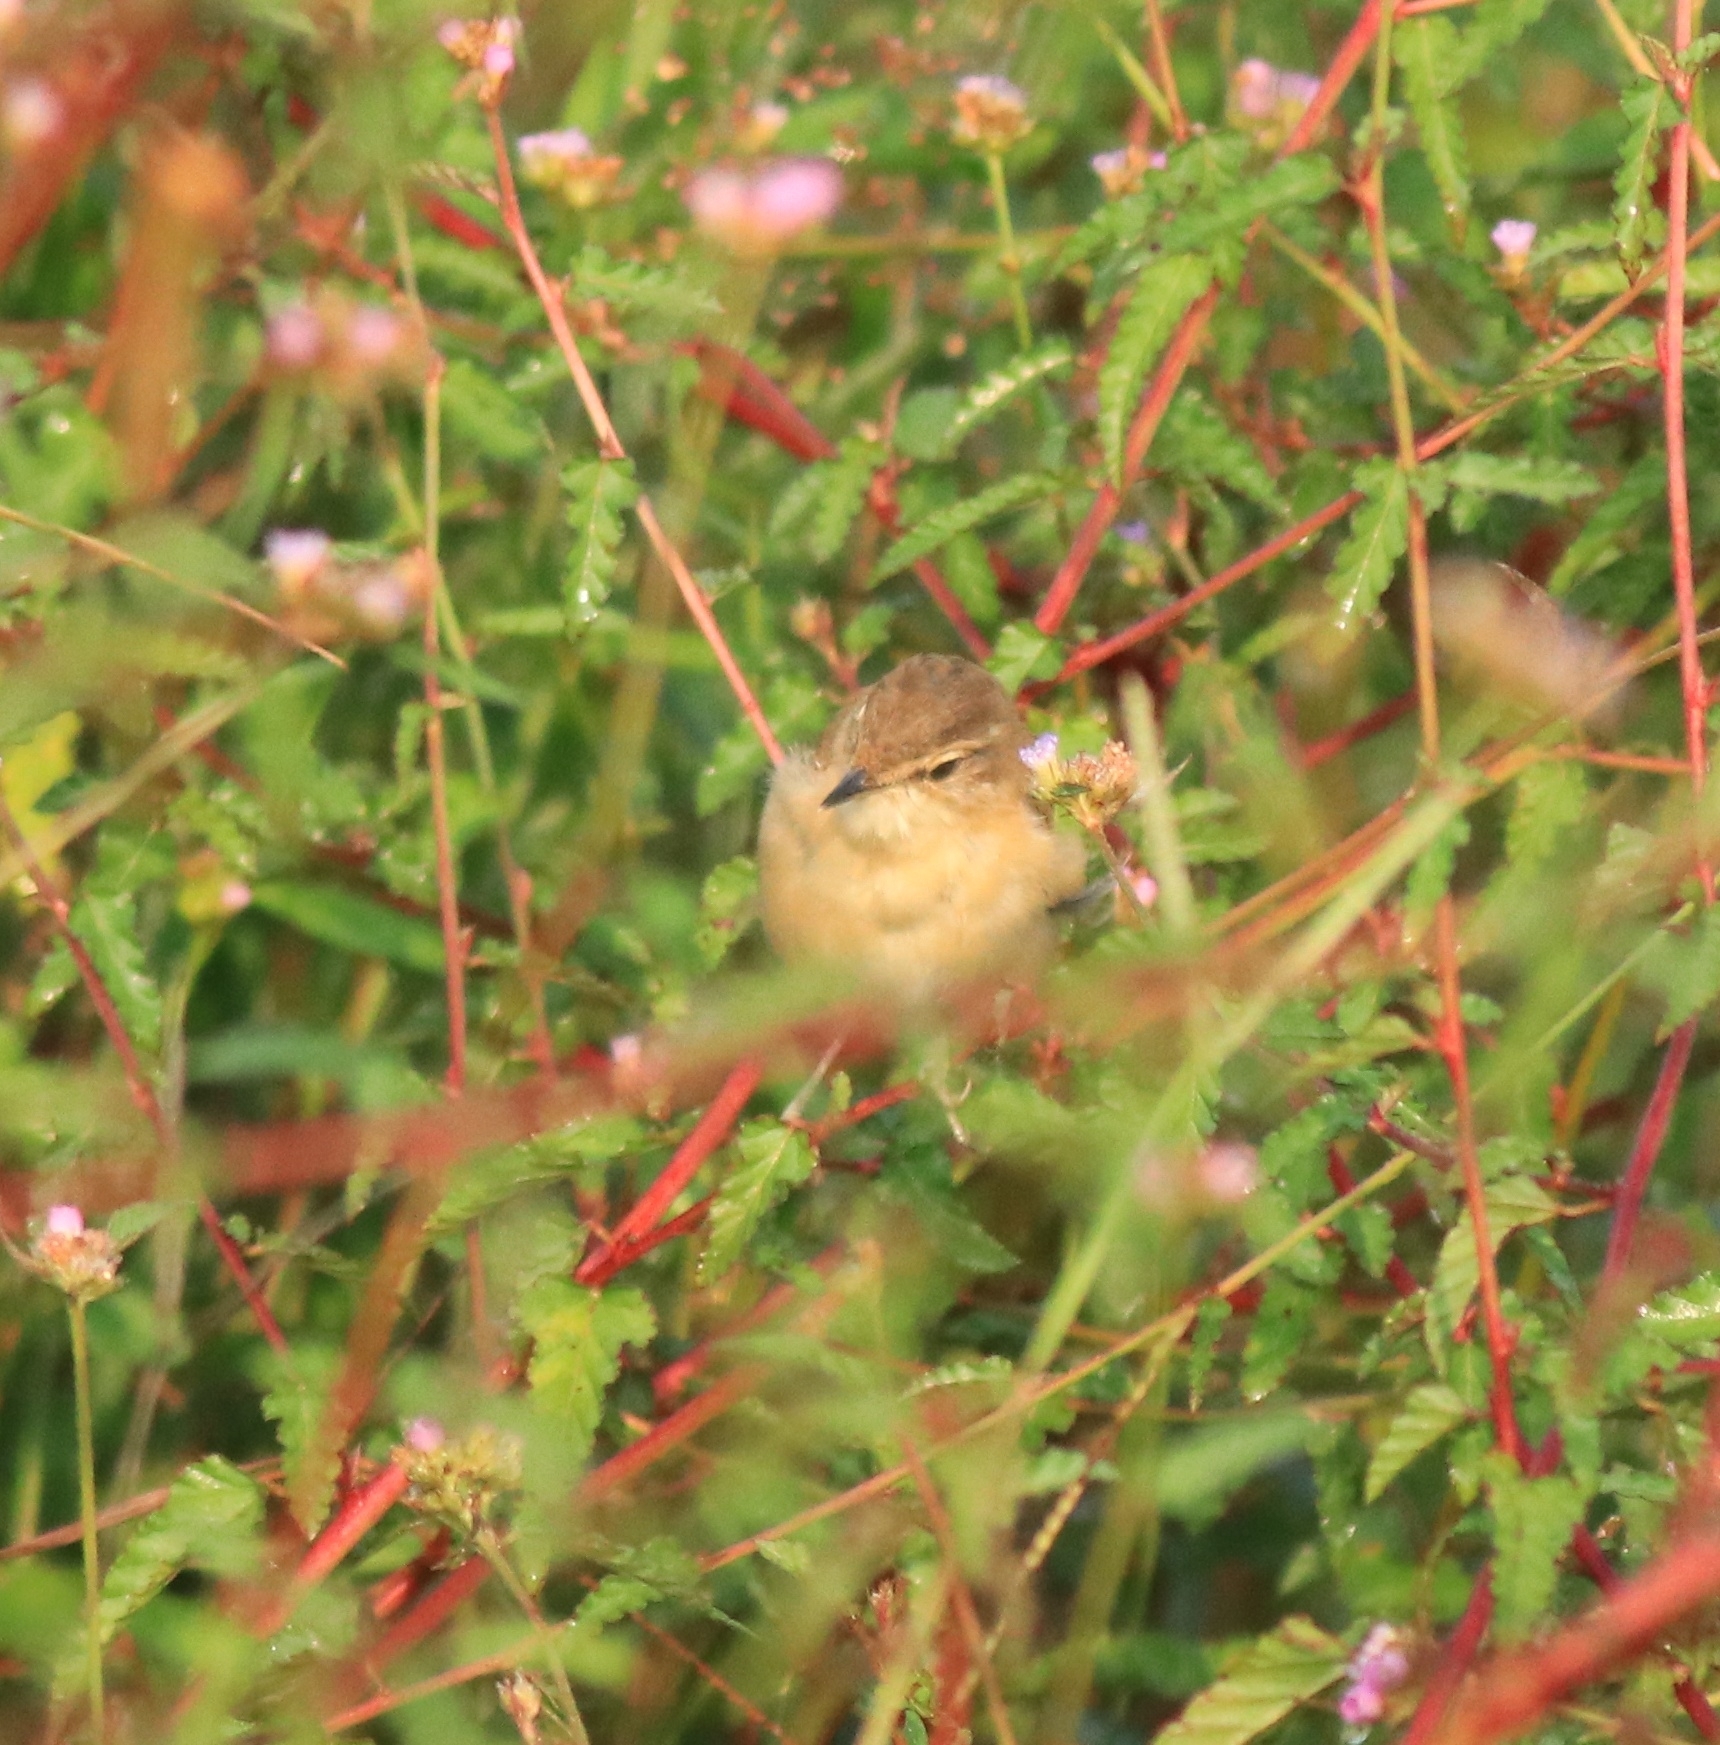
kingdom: Animalia
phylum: Chordata
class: Aves
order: Passeriformes
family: Acrocephalidae
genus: Acrocephalus
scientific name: Acrocephalus agricola
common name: Paddyfield warbler
